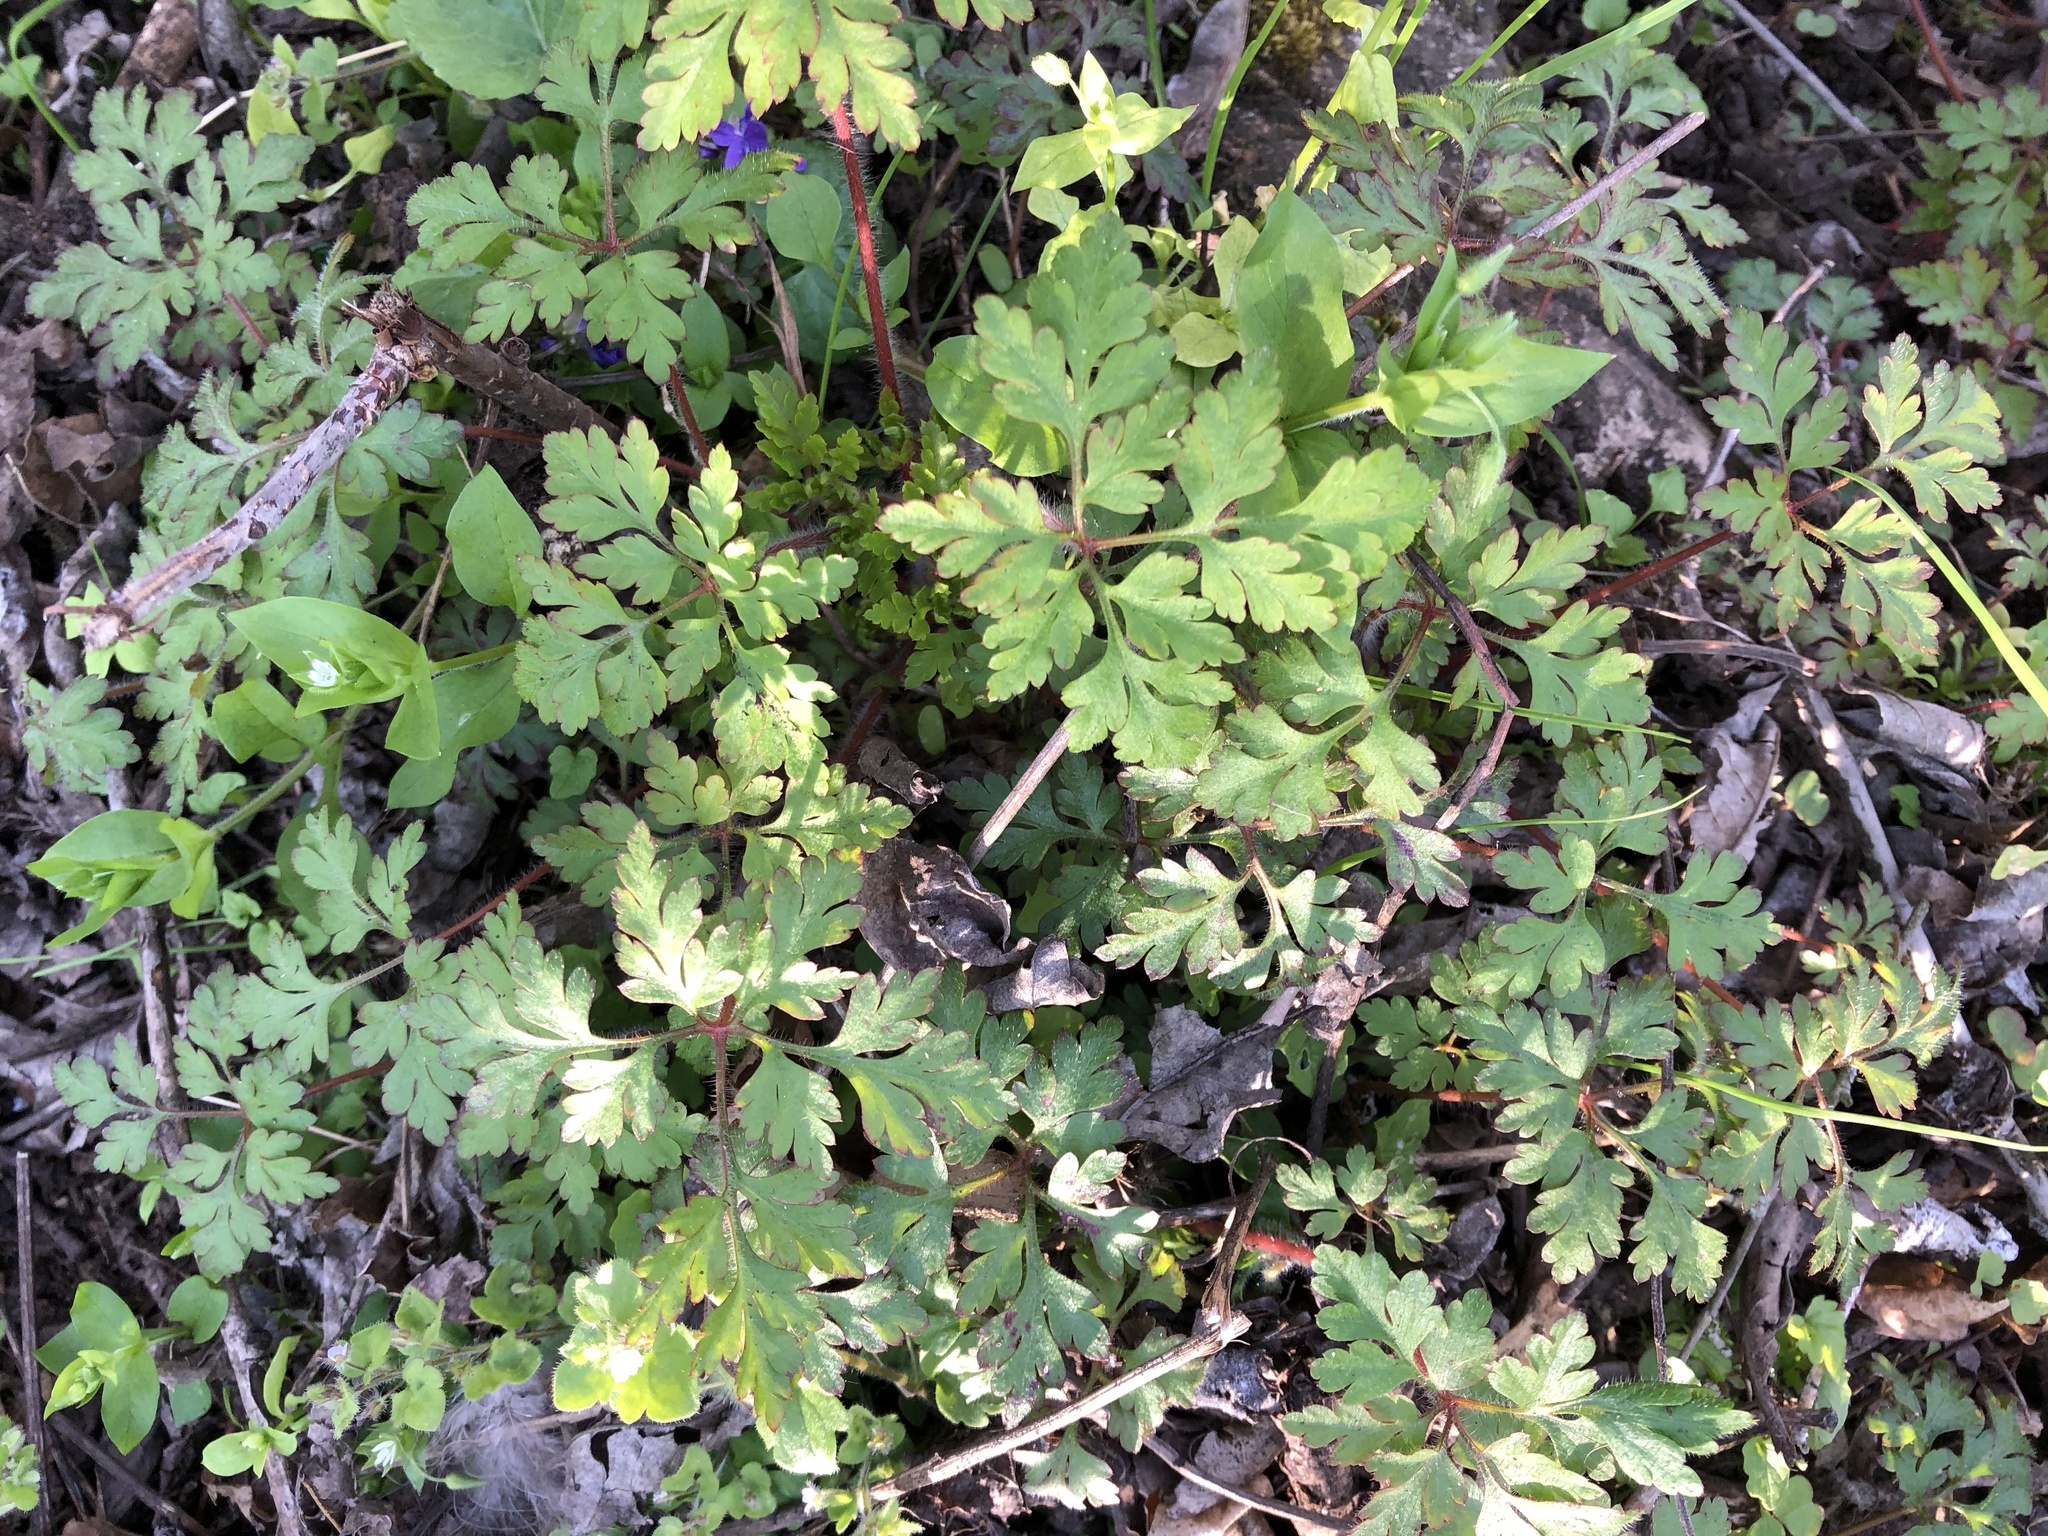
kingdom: Plantae
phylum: Tracheophyta
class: Magnoliopsida
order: Geraniales
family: Geraniaceae
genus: Geranium
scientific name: Geranium robertianum
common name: Herb-robert
